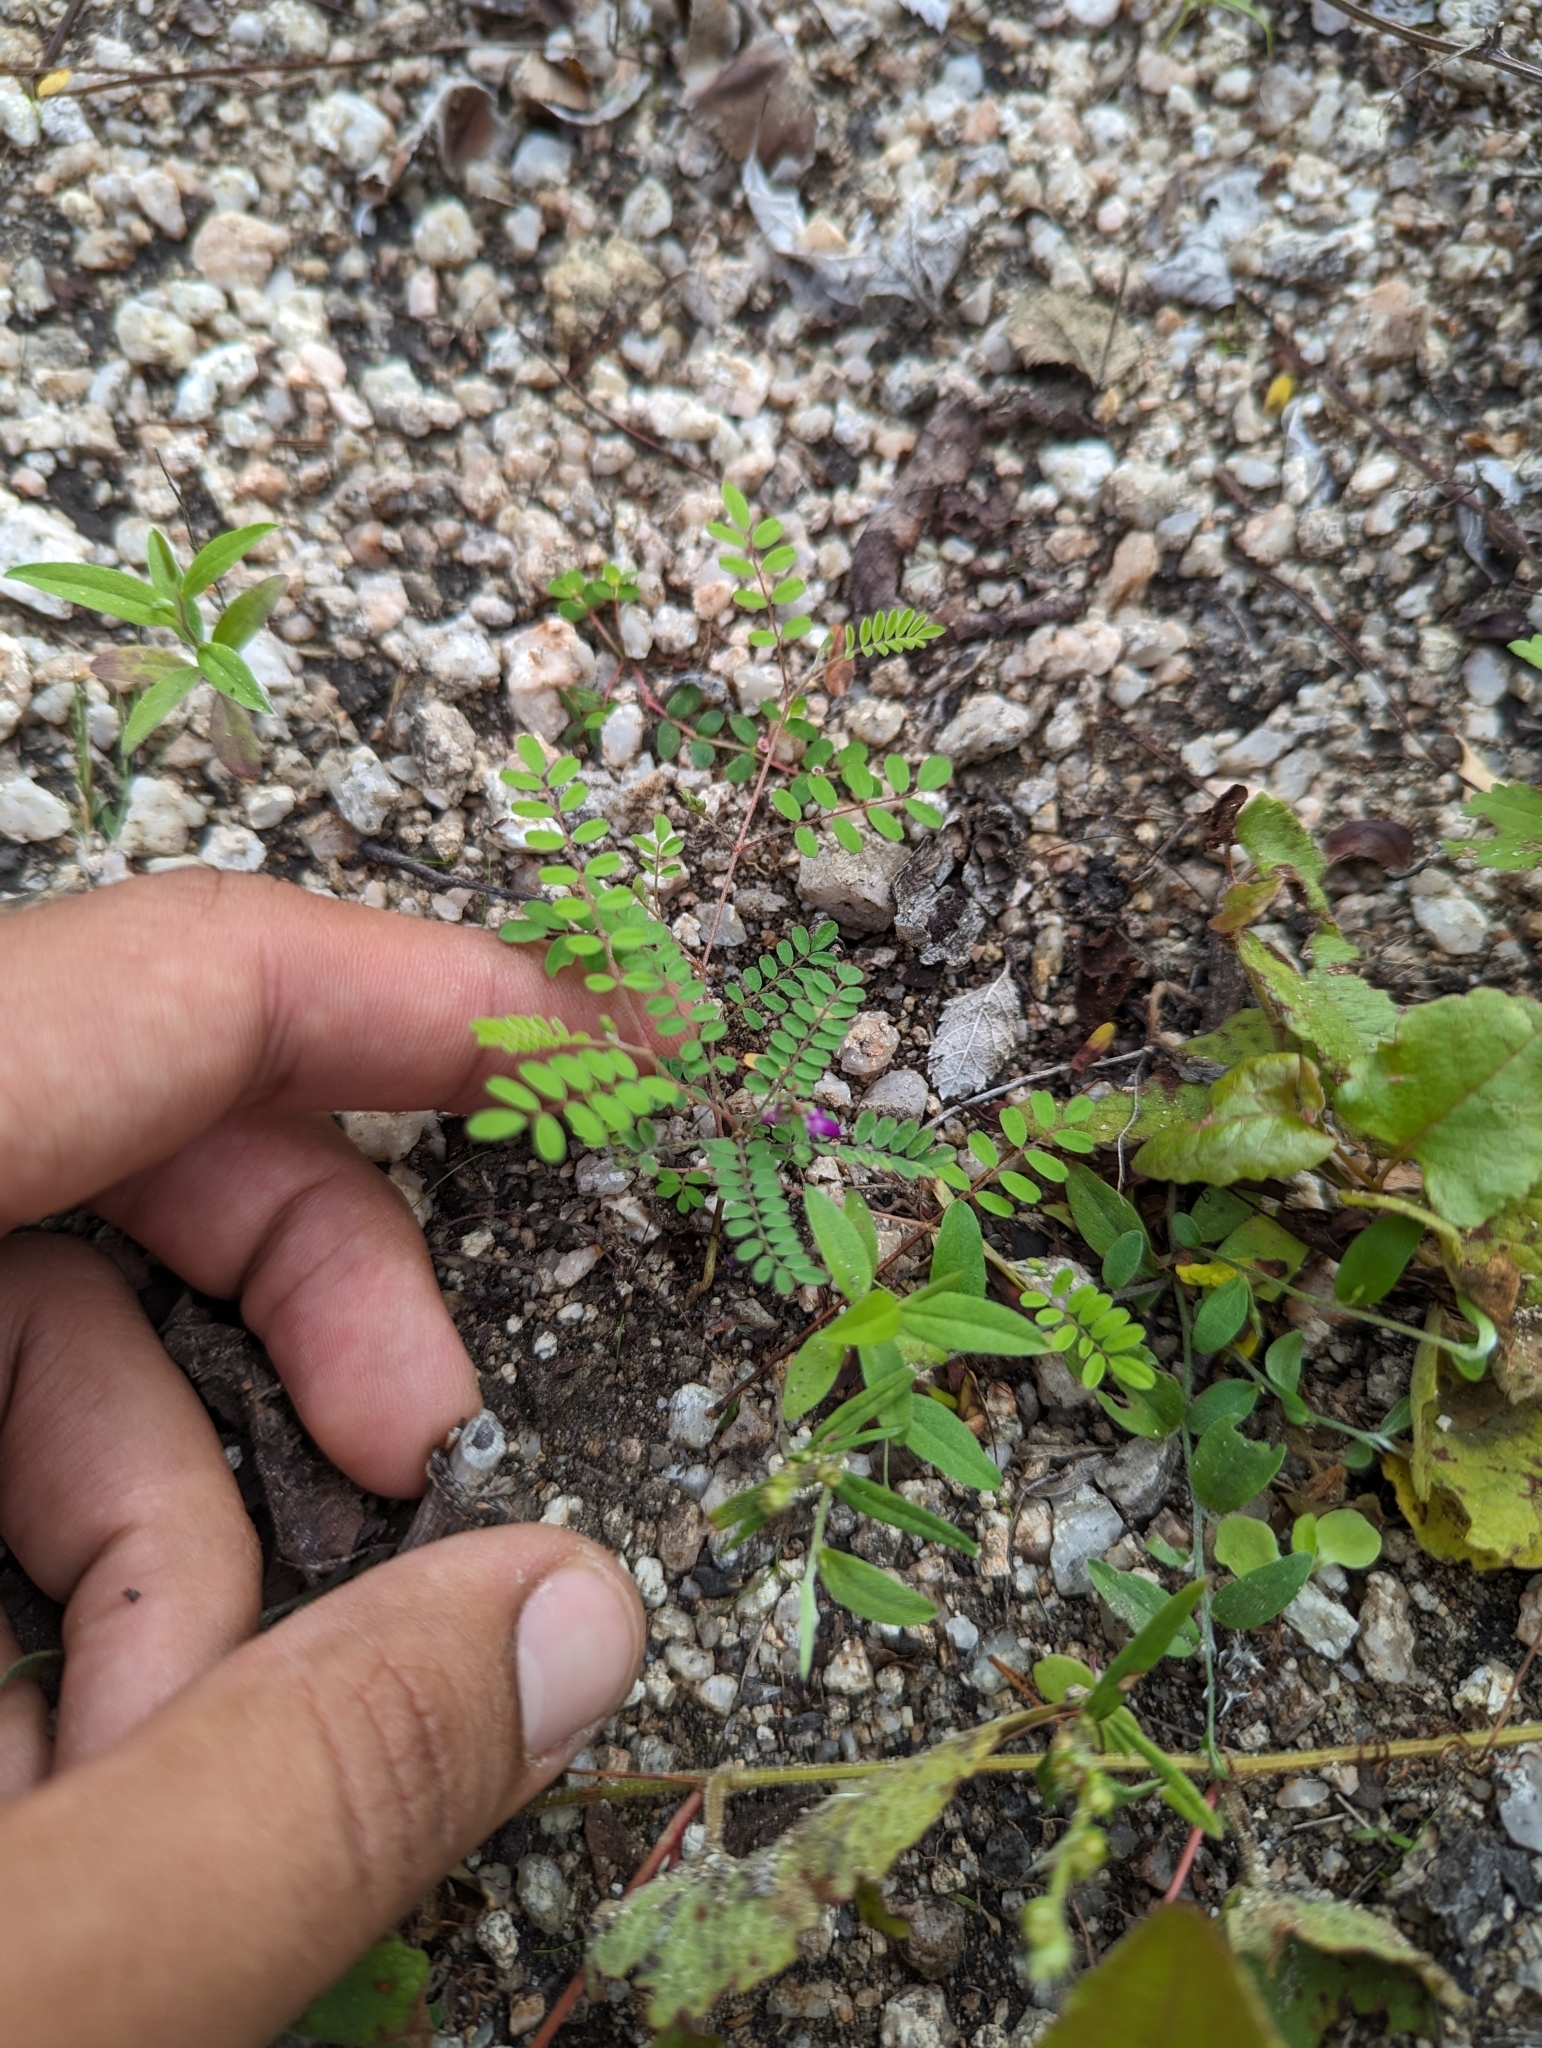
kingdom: Plantae
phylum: Tracheophyta
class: Magnoliopsida
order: Fabales
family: Fabaceae
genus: Marina
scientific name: Marina interstes
